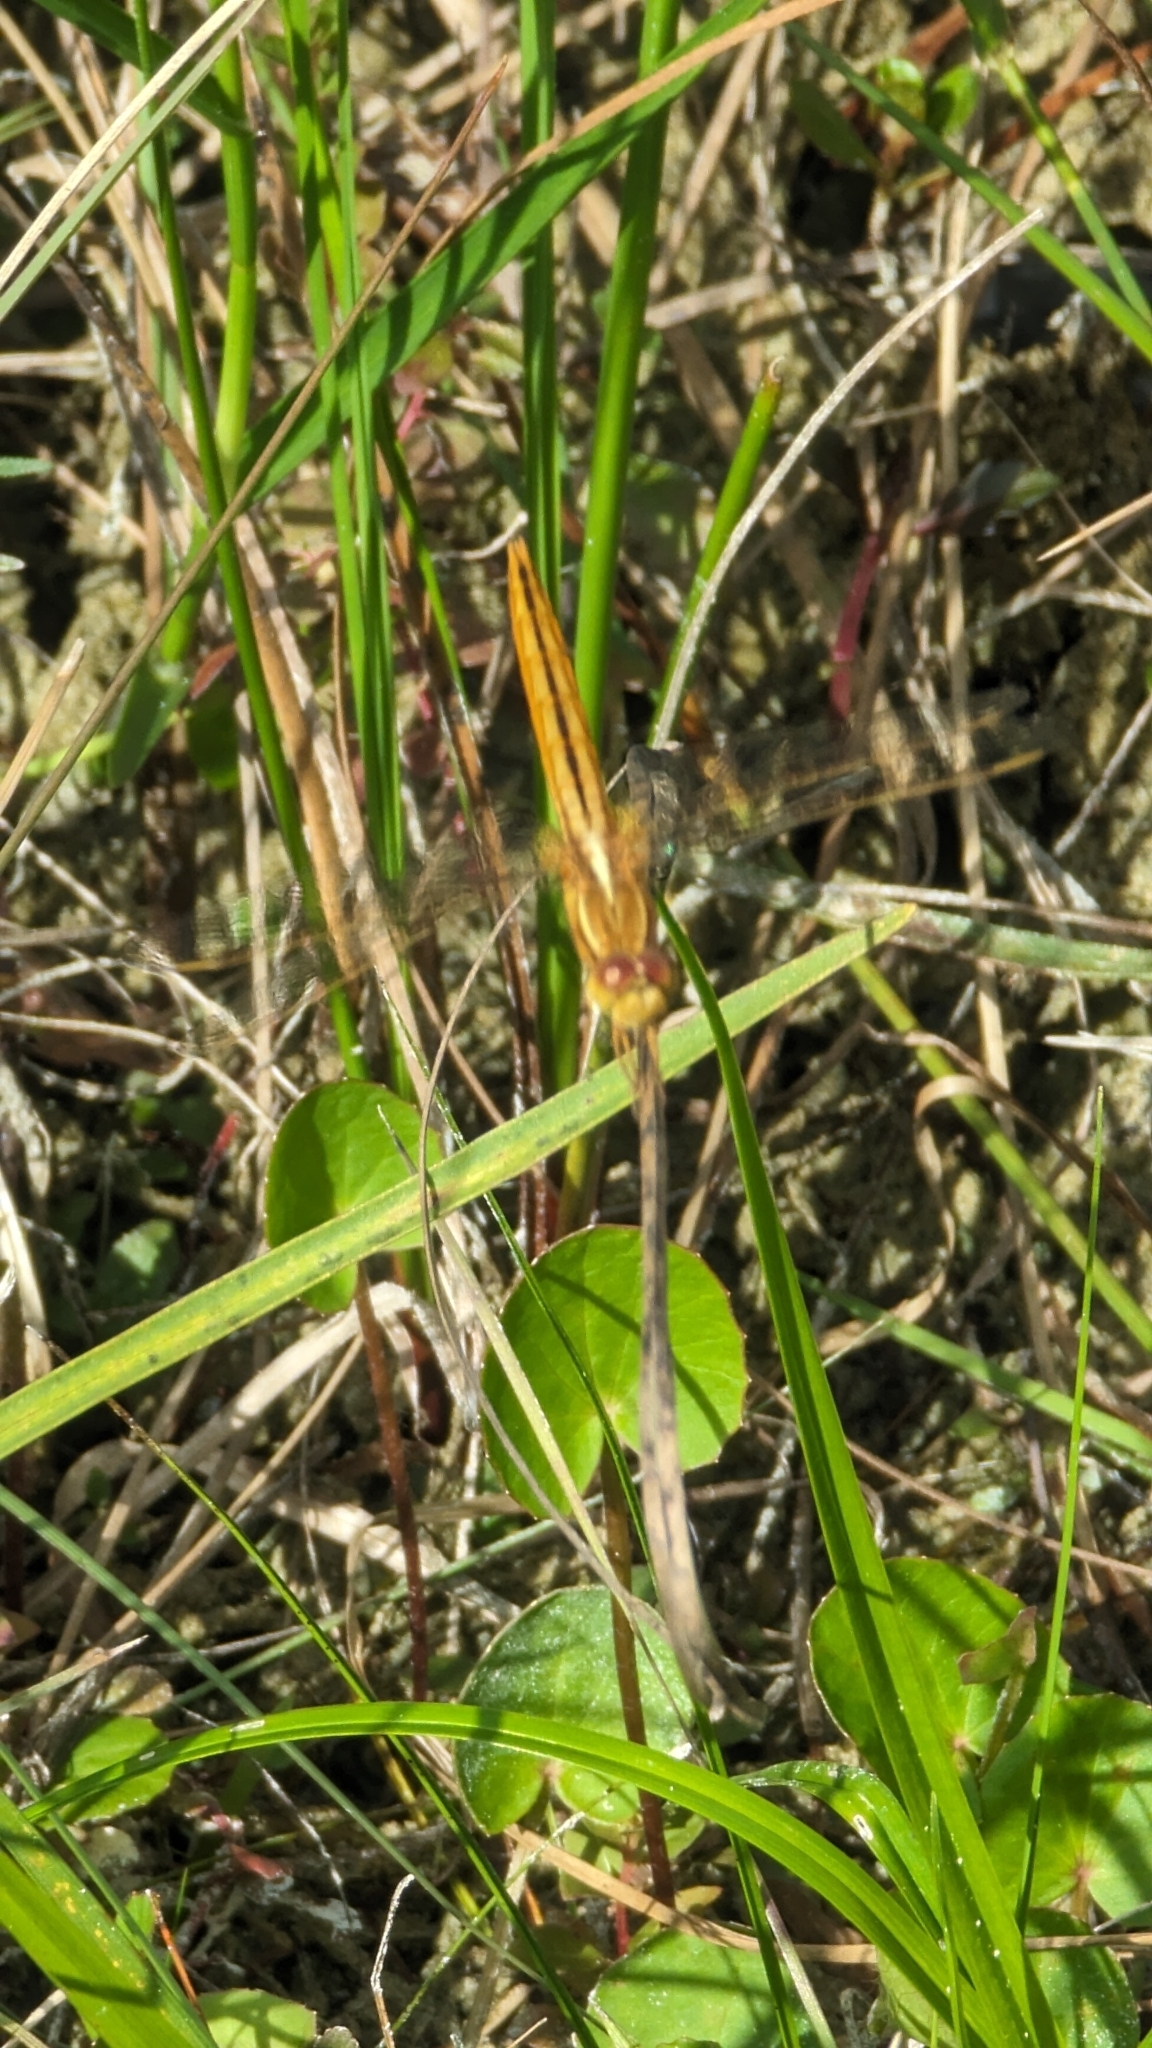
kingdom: Animalia
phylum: Arthropoda
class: Insecta
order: Odonata
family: Libellulidae
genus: Crocothemis
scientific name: Crocothemis servilia
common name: Scarlet skimmer
